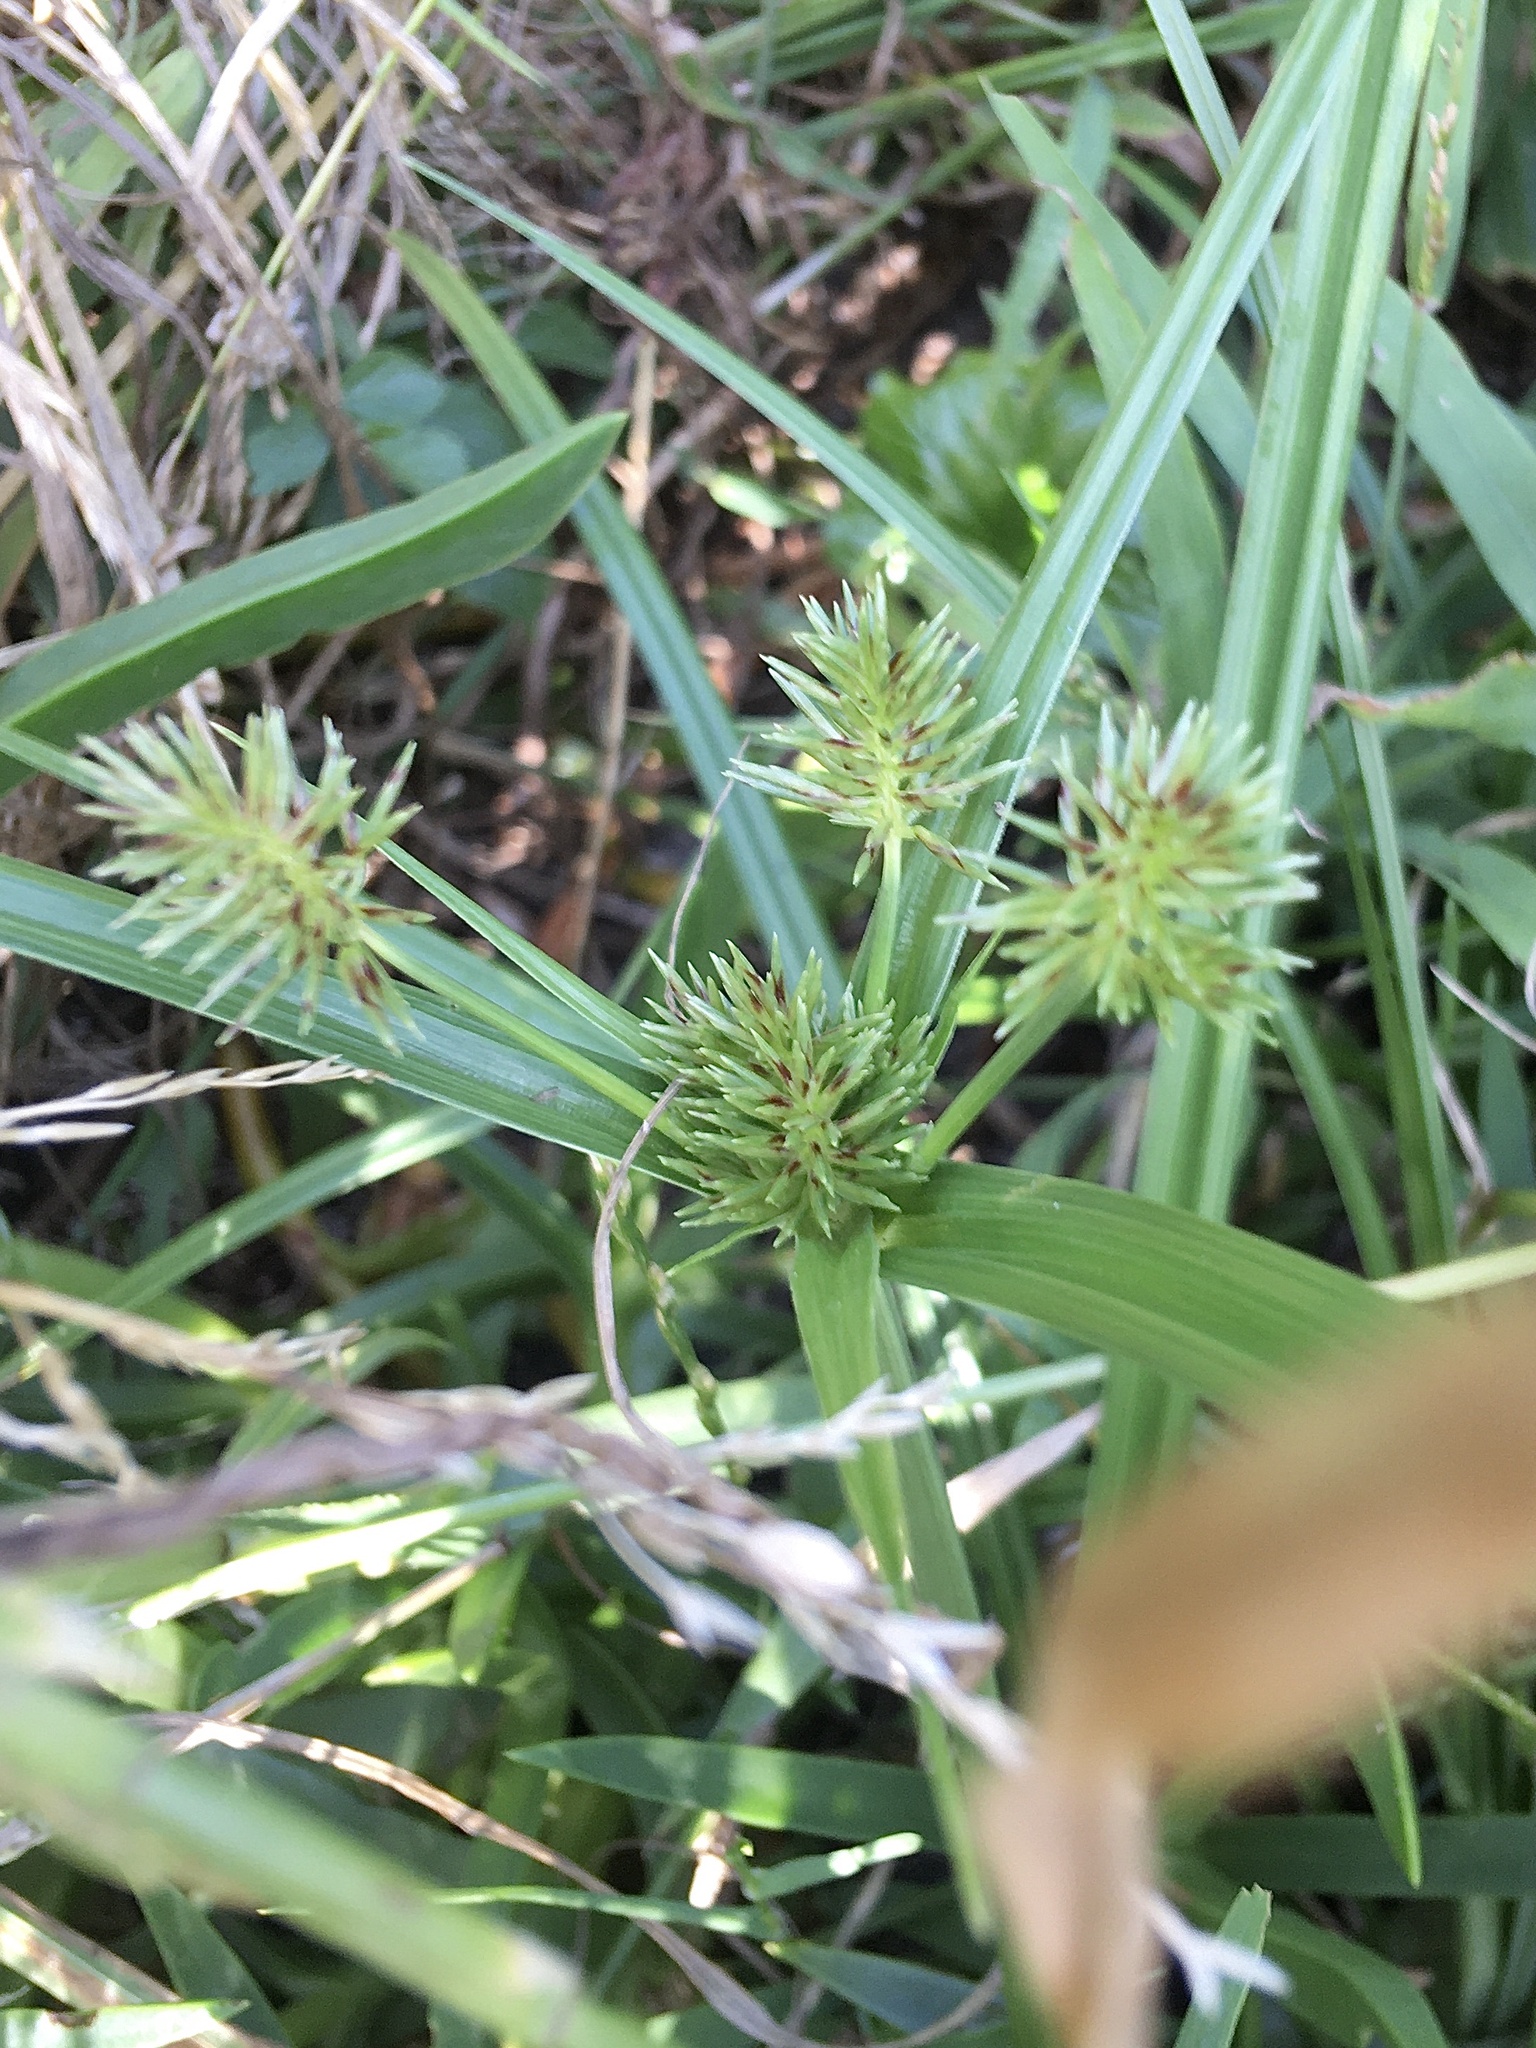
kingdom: Plantae
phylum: Tracheophyta
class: Liliopsida
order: Poales
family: Cyperaceae
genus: Cyperus
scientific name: Cyperus congestus
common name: Dense flat sedge
